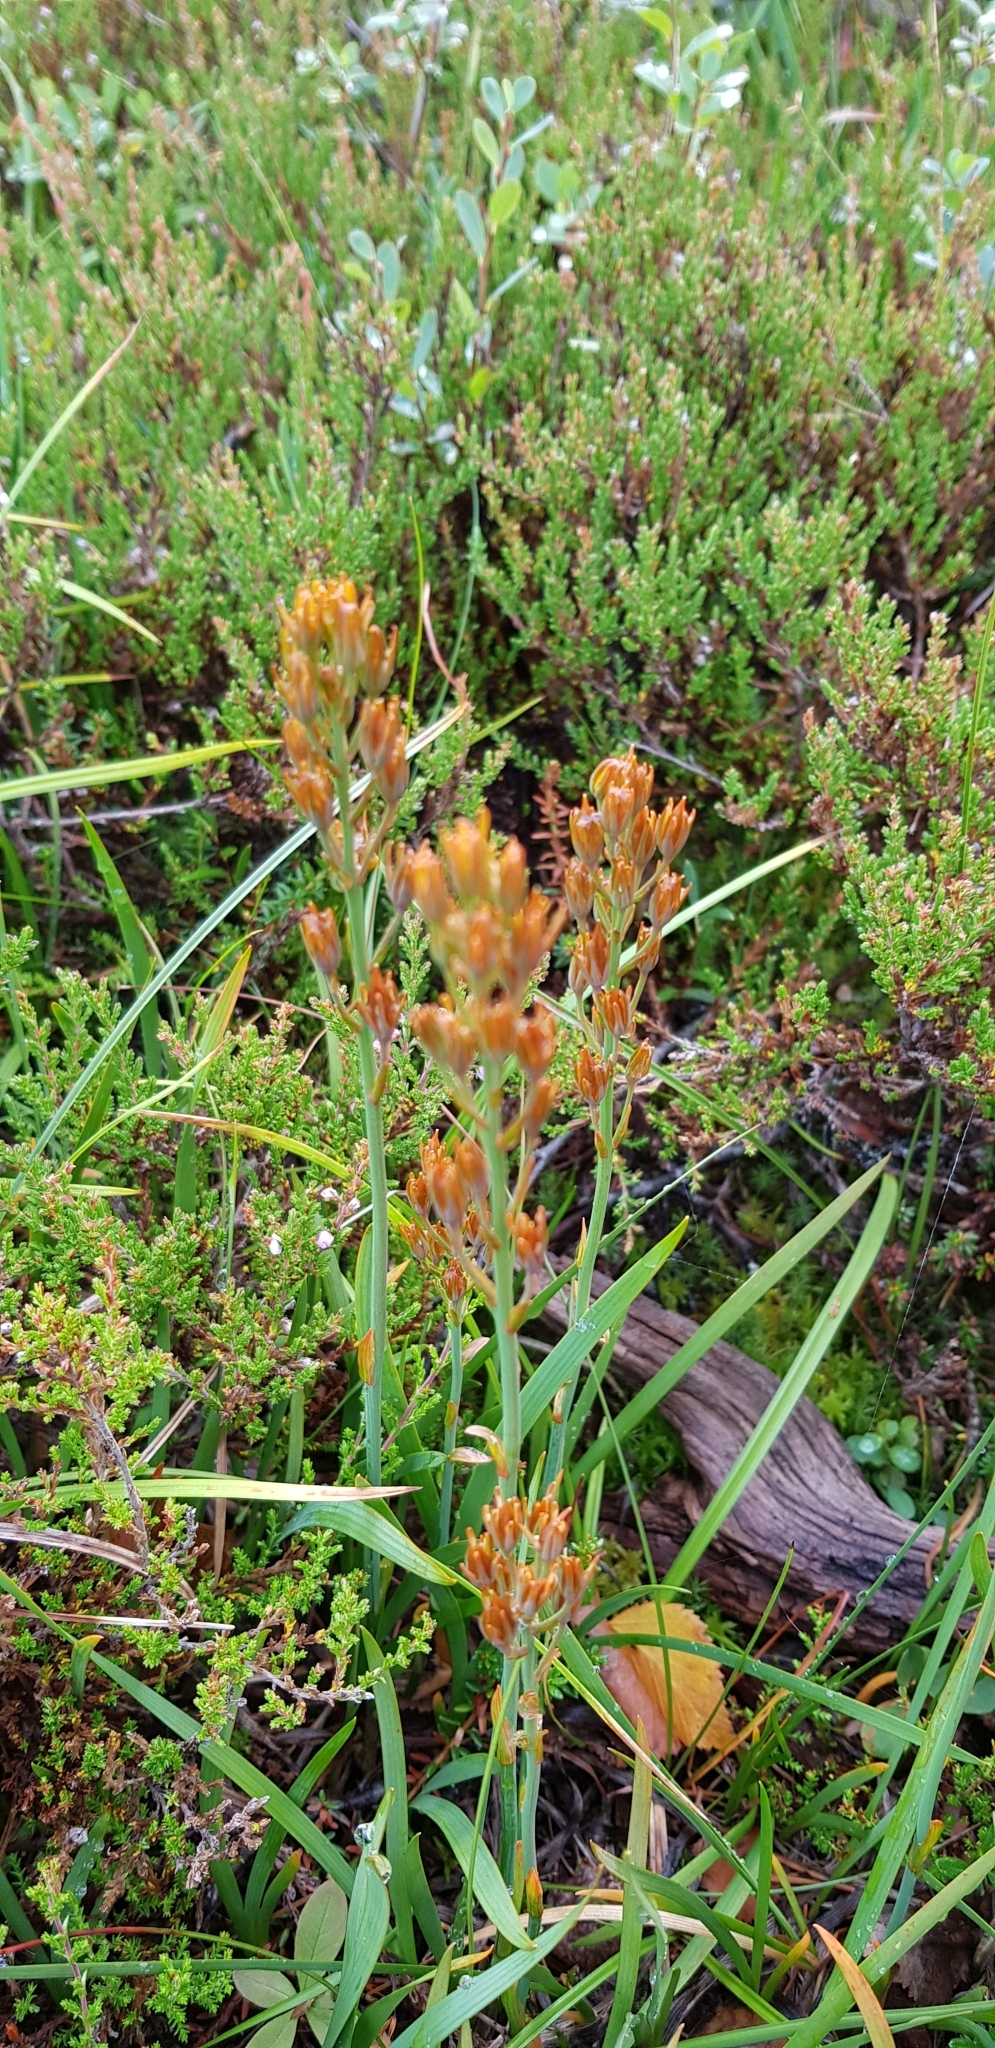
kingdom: Plantae
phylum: Tracheophyta
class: Liliopsida
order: Dioscoreales
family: Nartheciaceae
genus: Narthecium
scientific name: Narthecium ossifragum
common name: Bog asphodel
